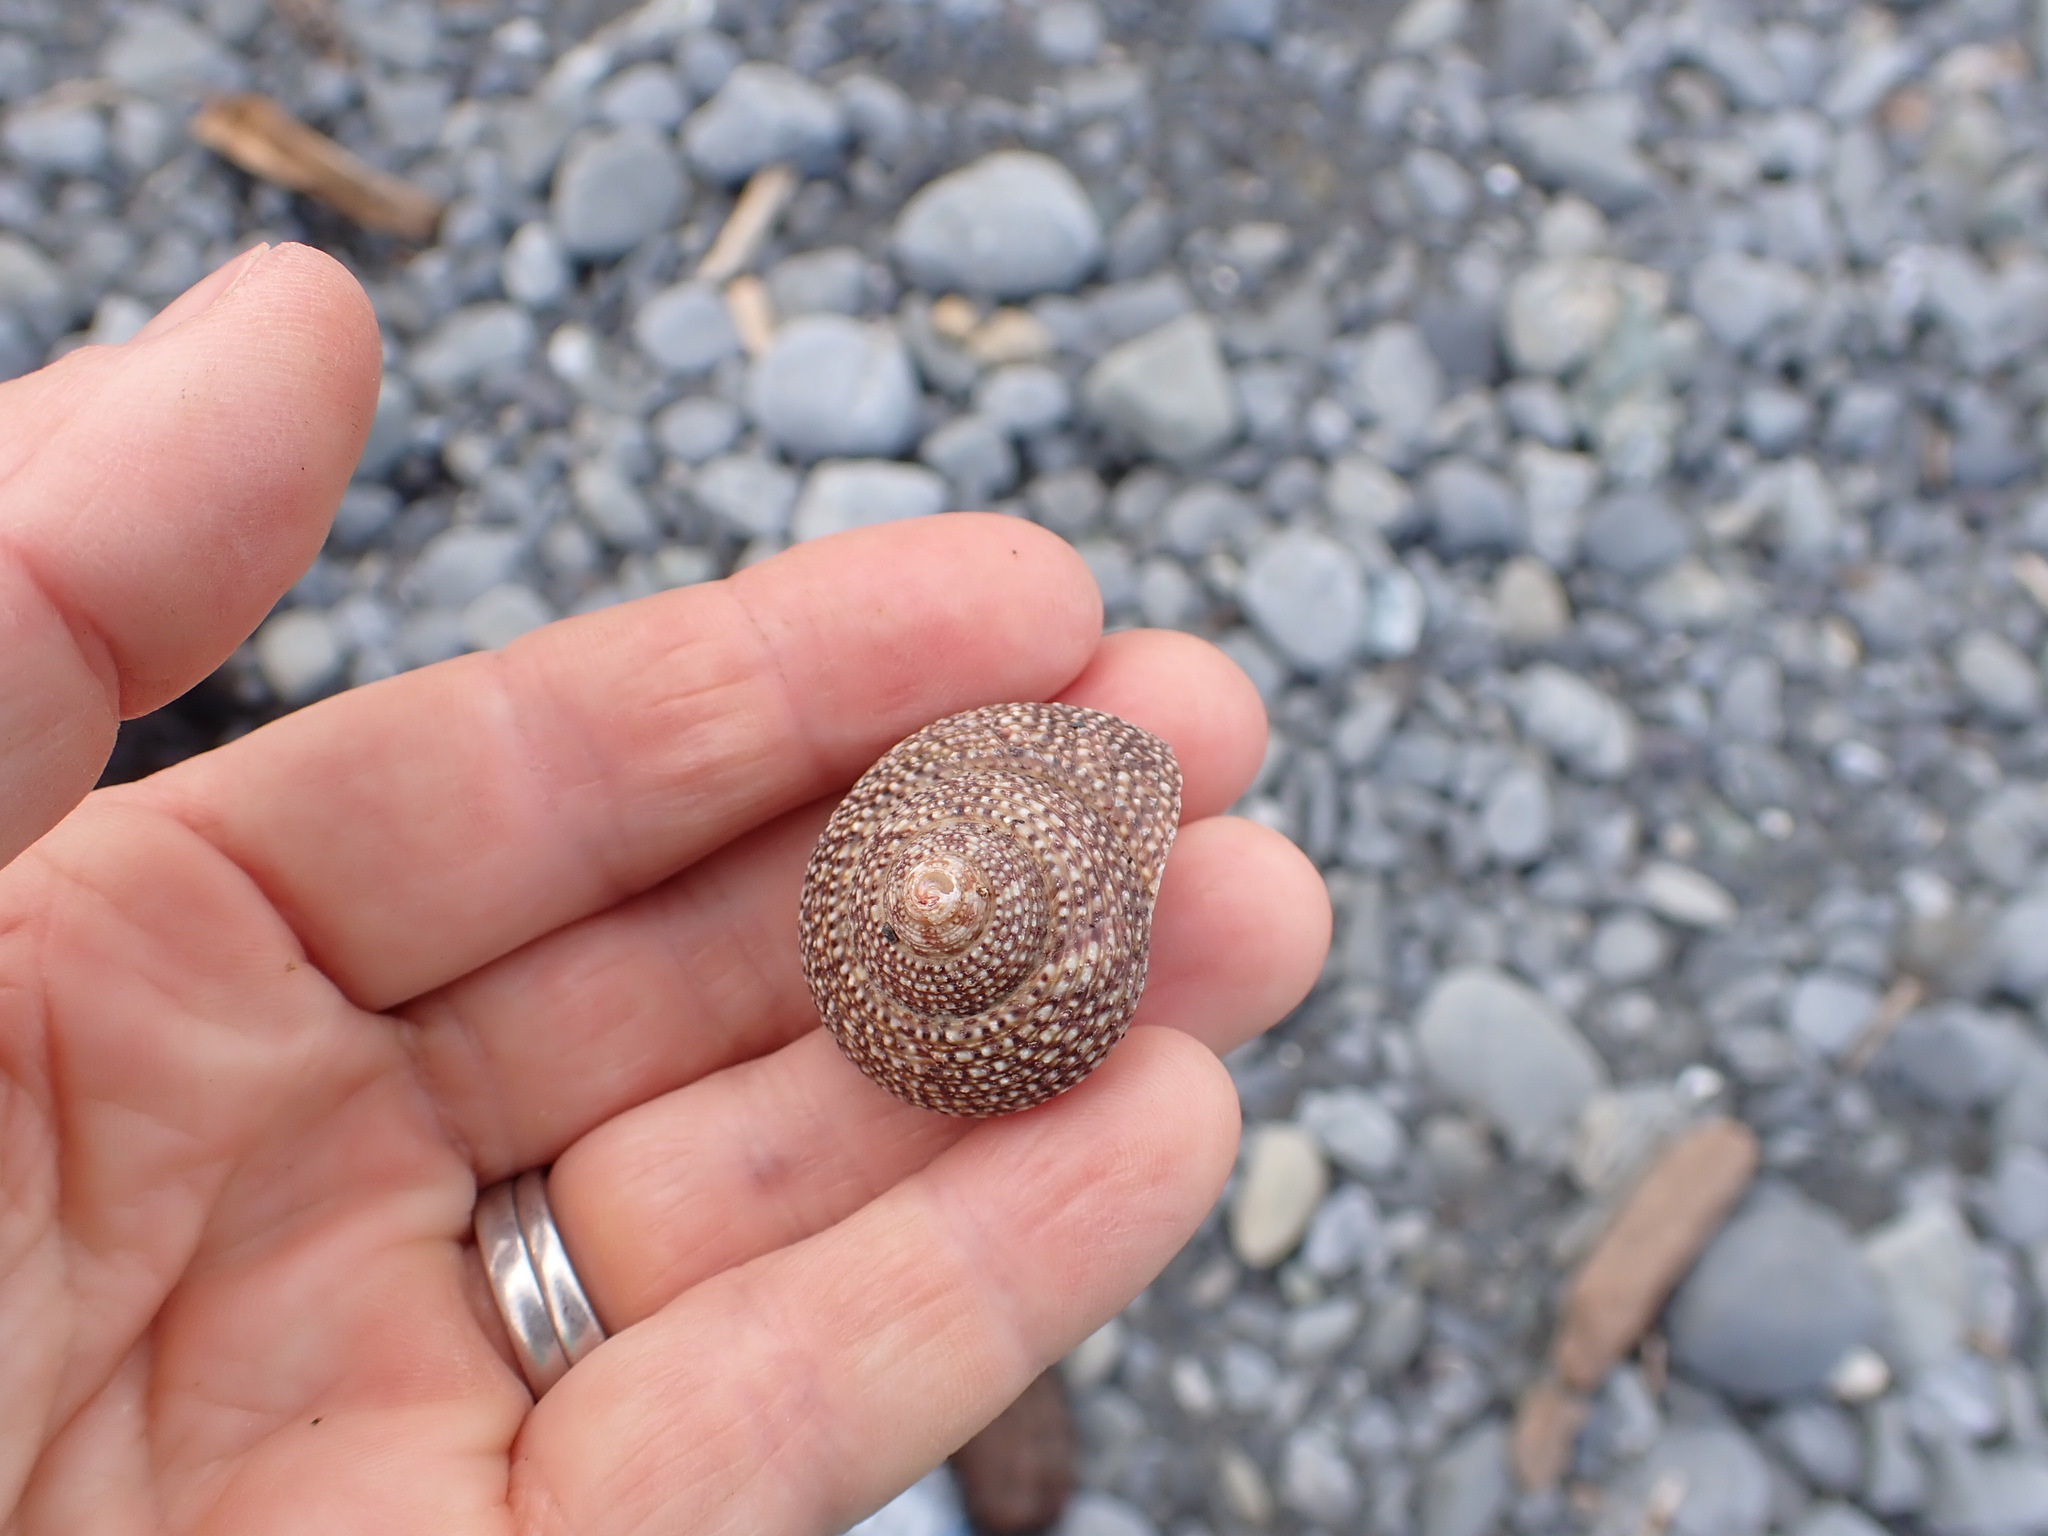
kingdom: Animalia
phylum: Mollusca
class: Gastropoda
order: Trochida
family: Calliostomatidae
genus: Maurea
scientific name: Maurea punctulata
